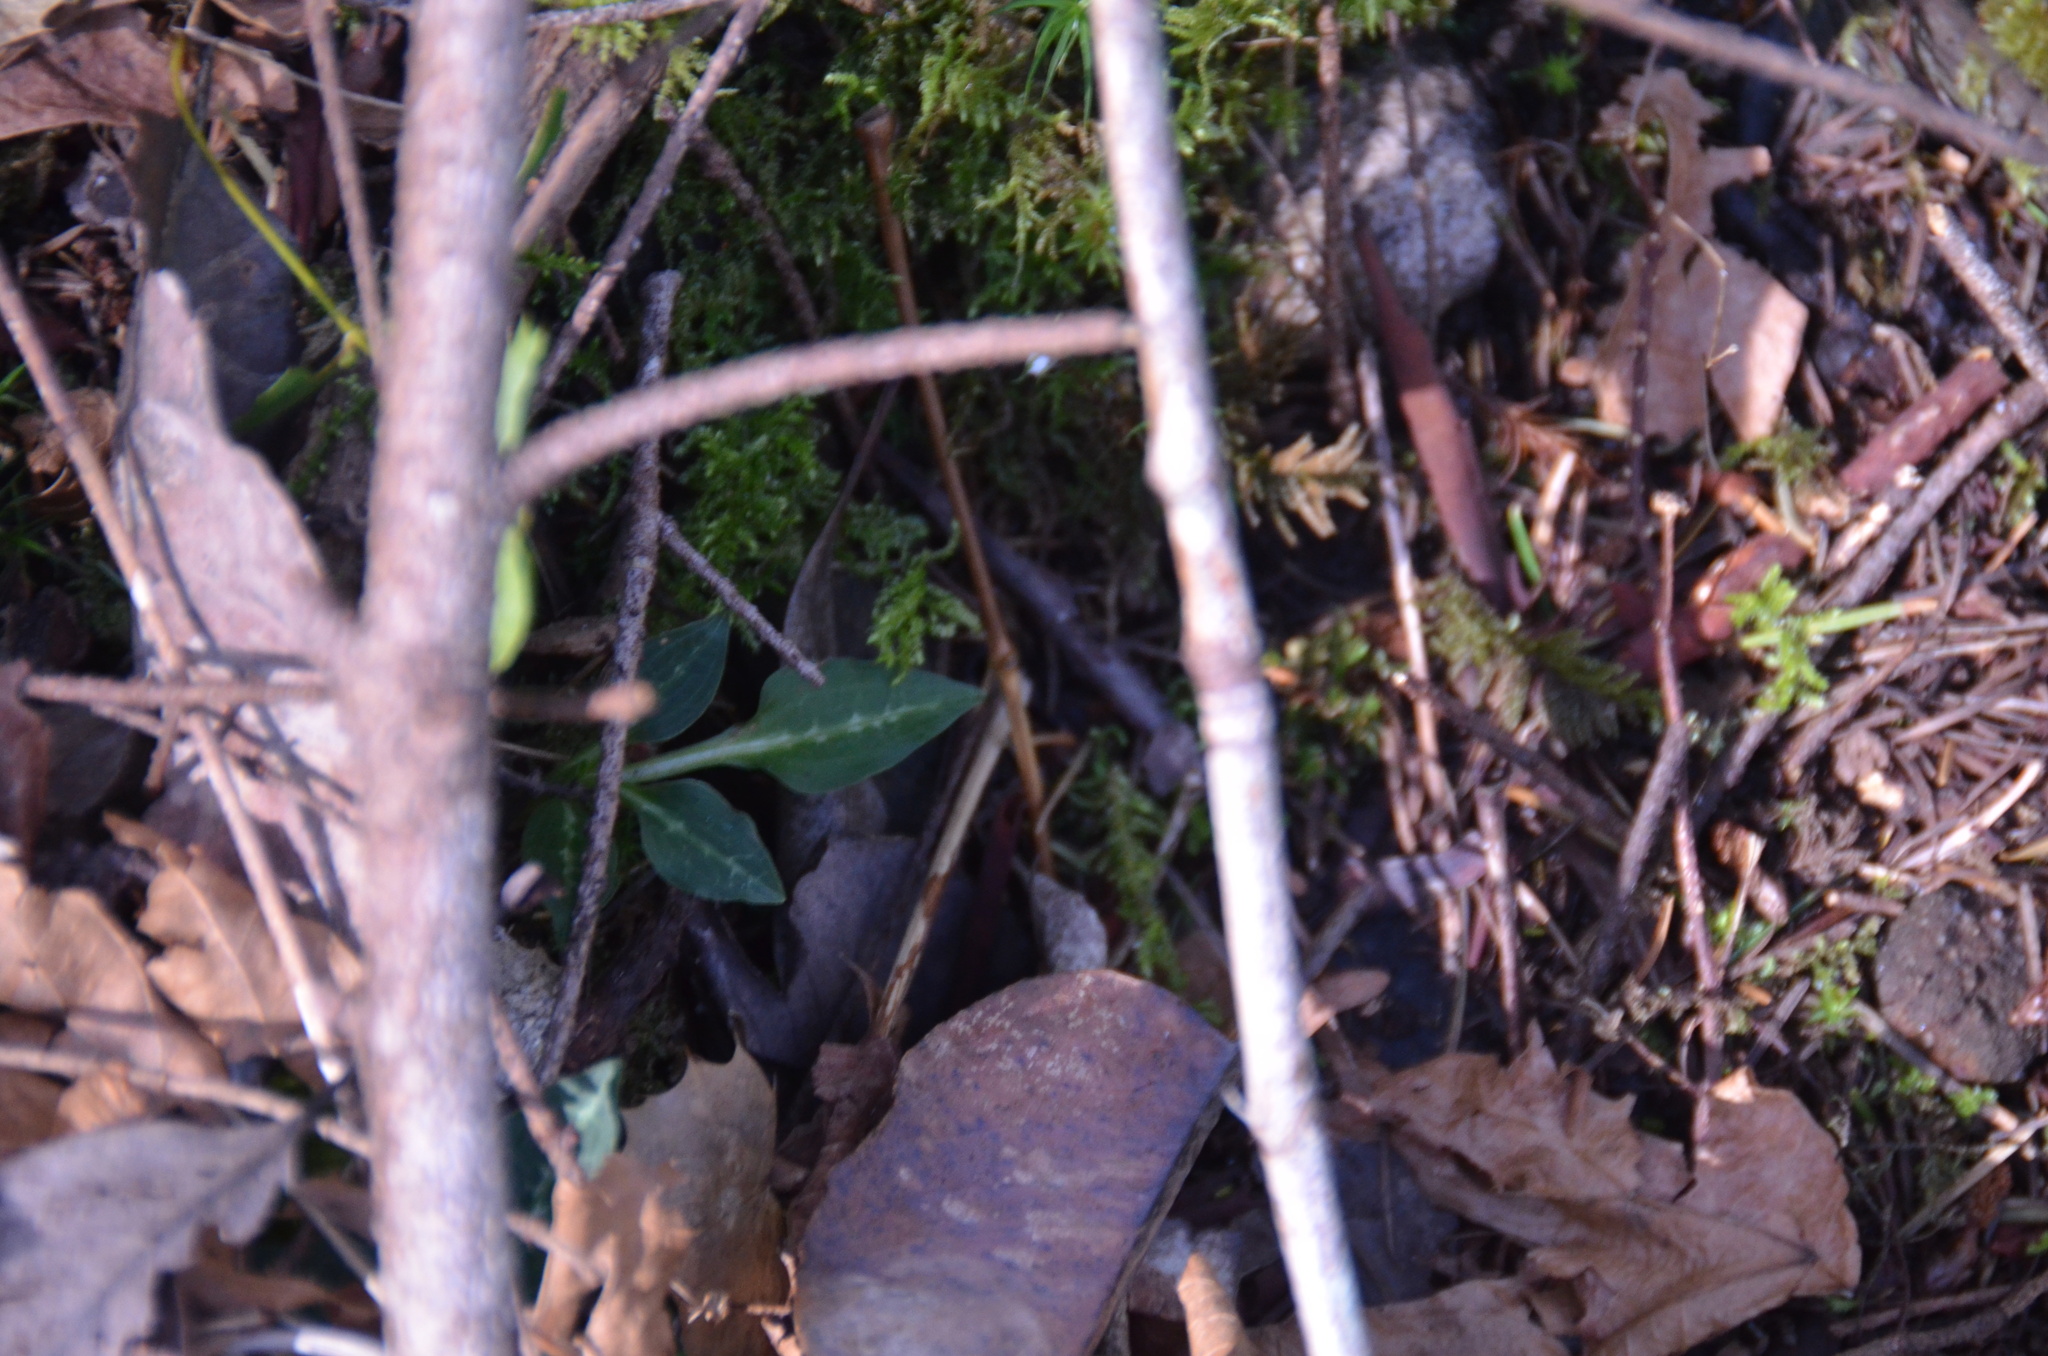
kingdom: Plantae
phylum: Tracheophyta
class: Liliopsida
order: Asparagales
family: Orchidaceae
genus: Goodyera
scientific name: Goodyera oblongifolia
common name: Giant rattlesnake-plantain
